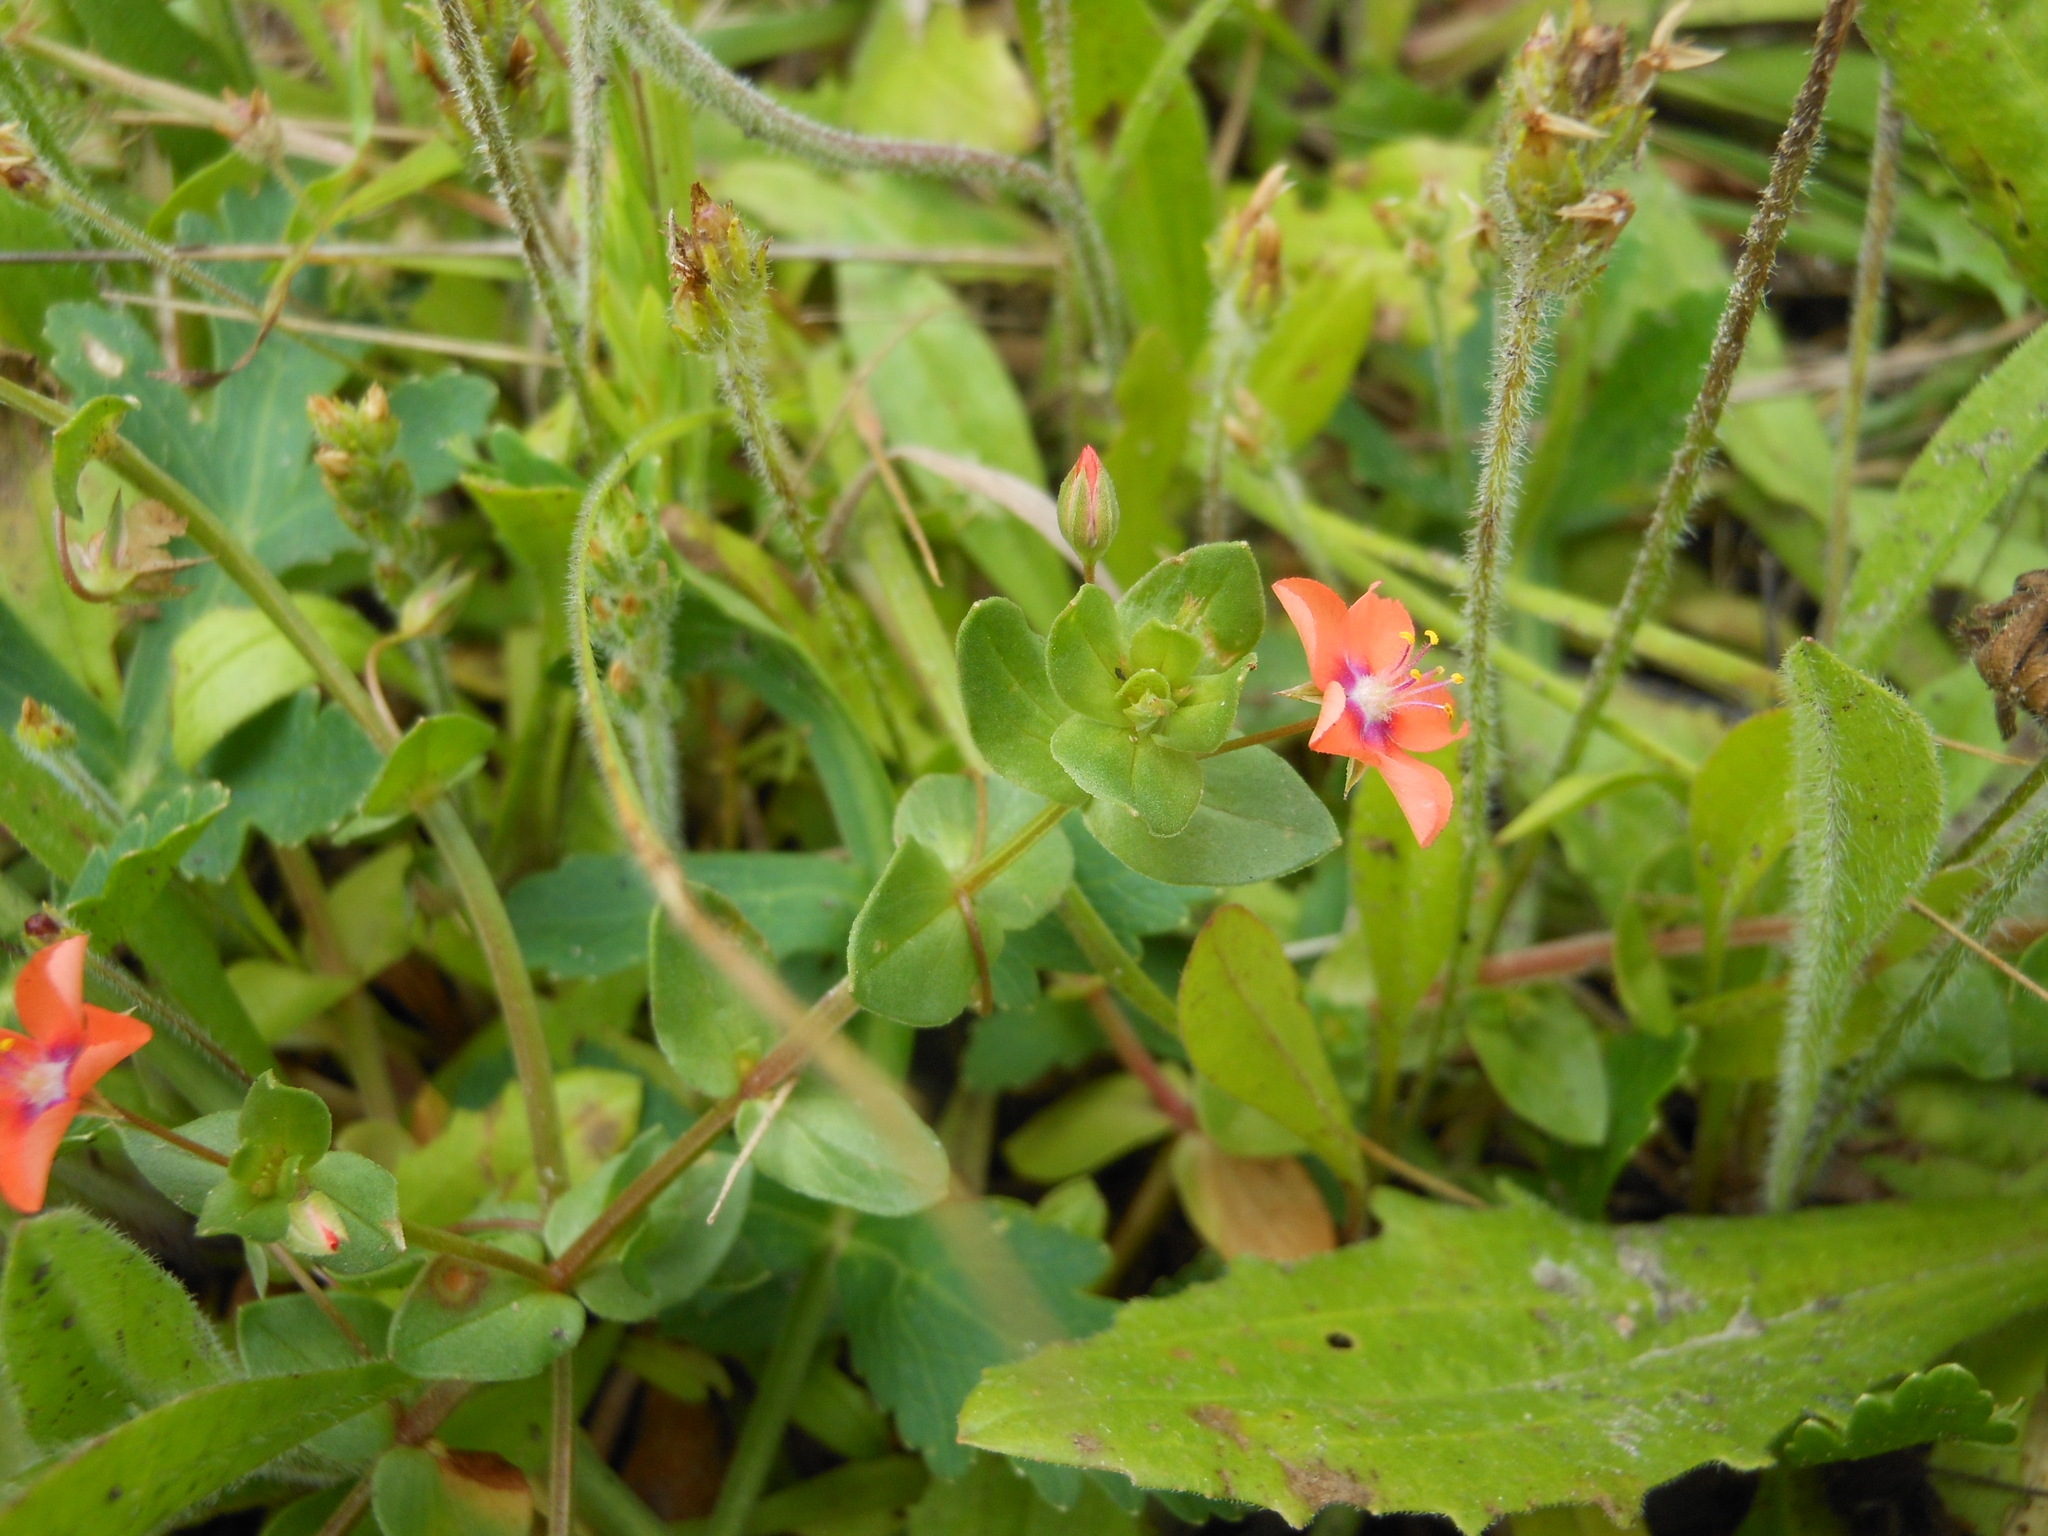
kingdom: Plantae
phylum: Tracheophyta
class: Magnoliopsida
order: Ericales
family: Primulaceae
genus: Lysimachia
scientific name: Lysimachia arvensis
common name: Scarlet pimpernel
